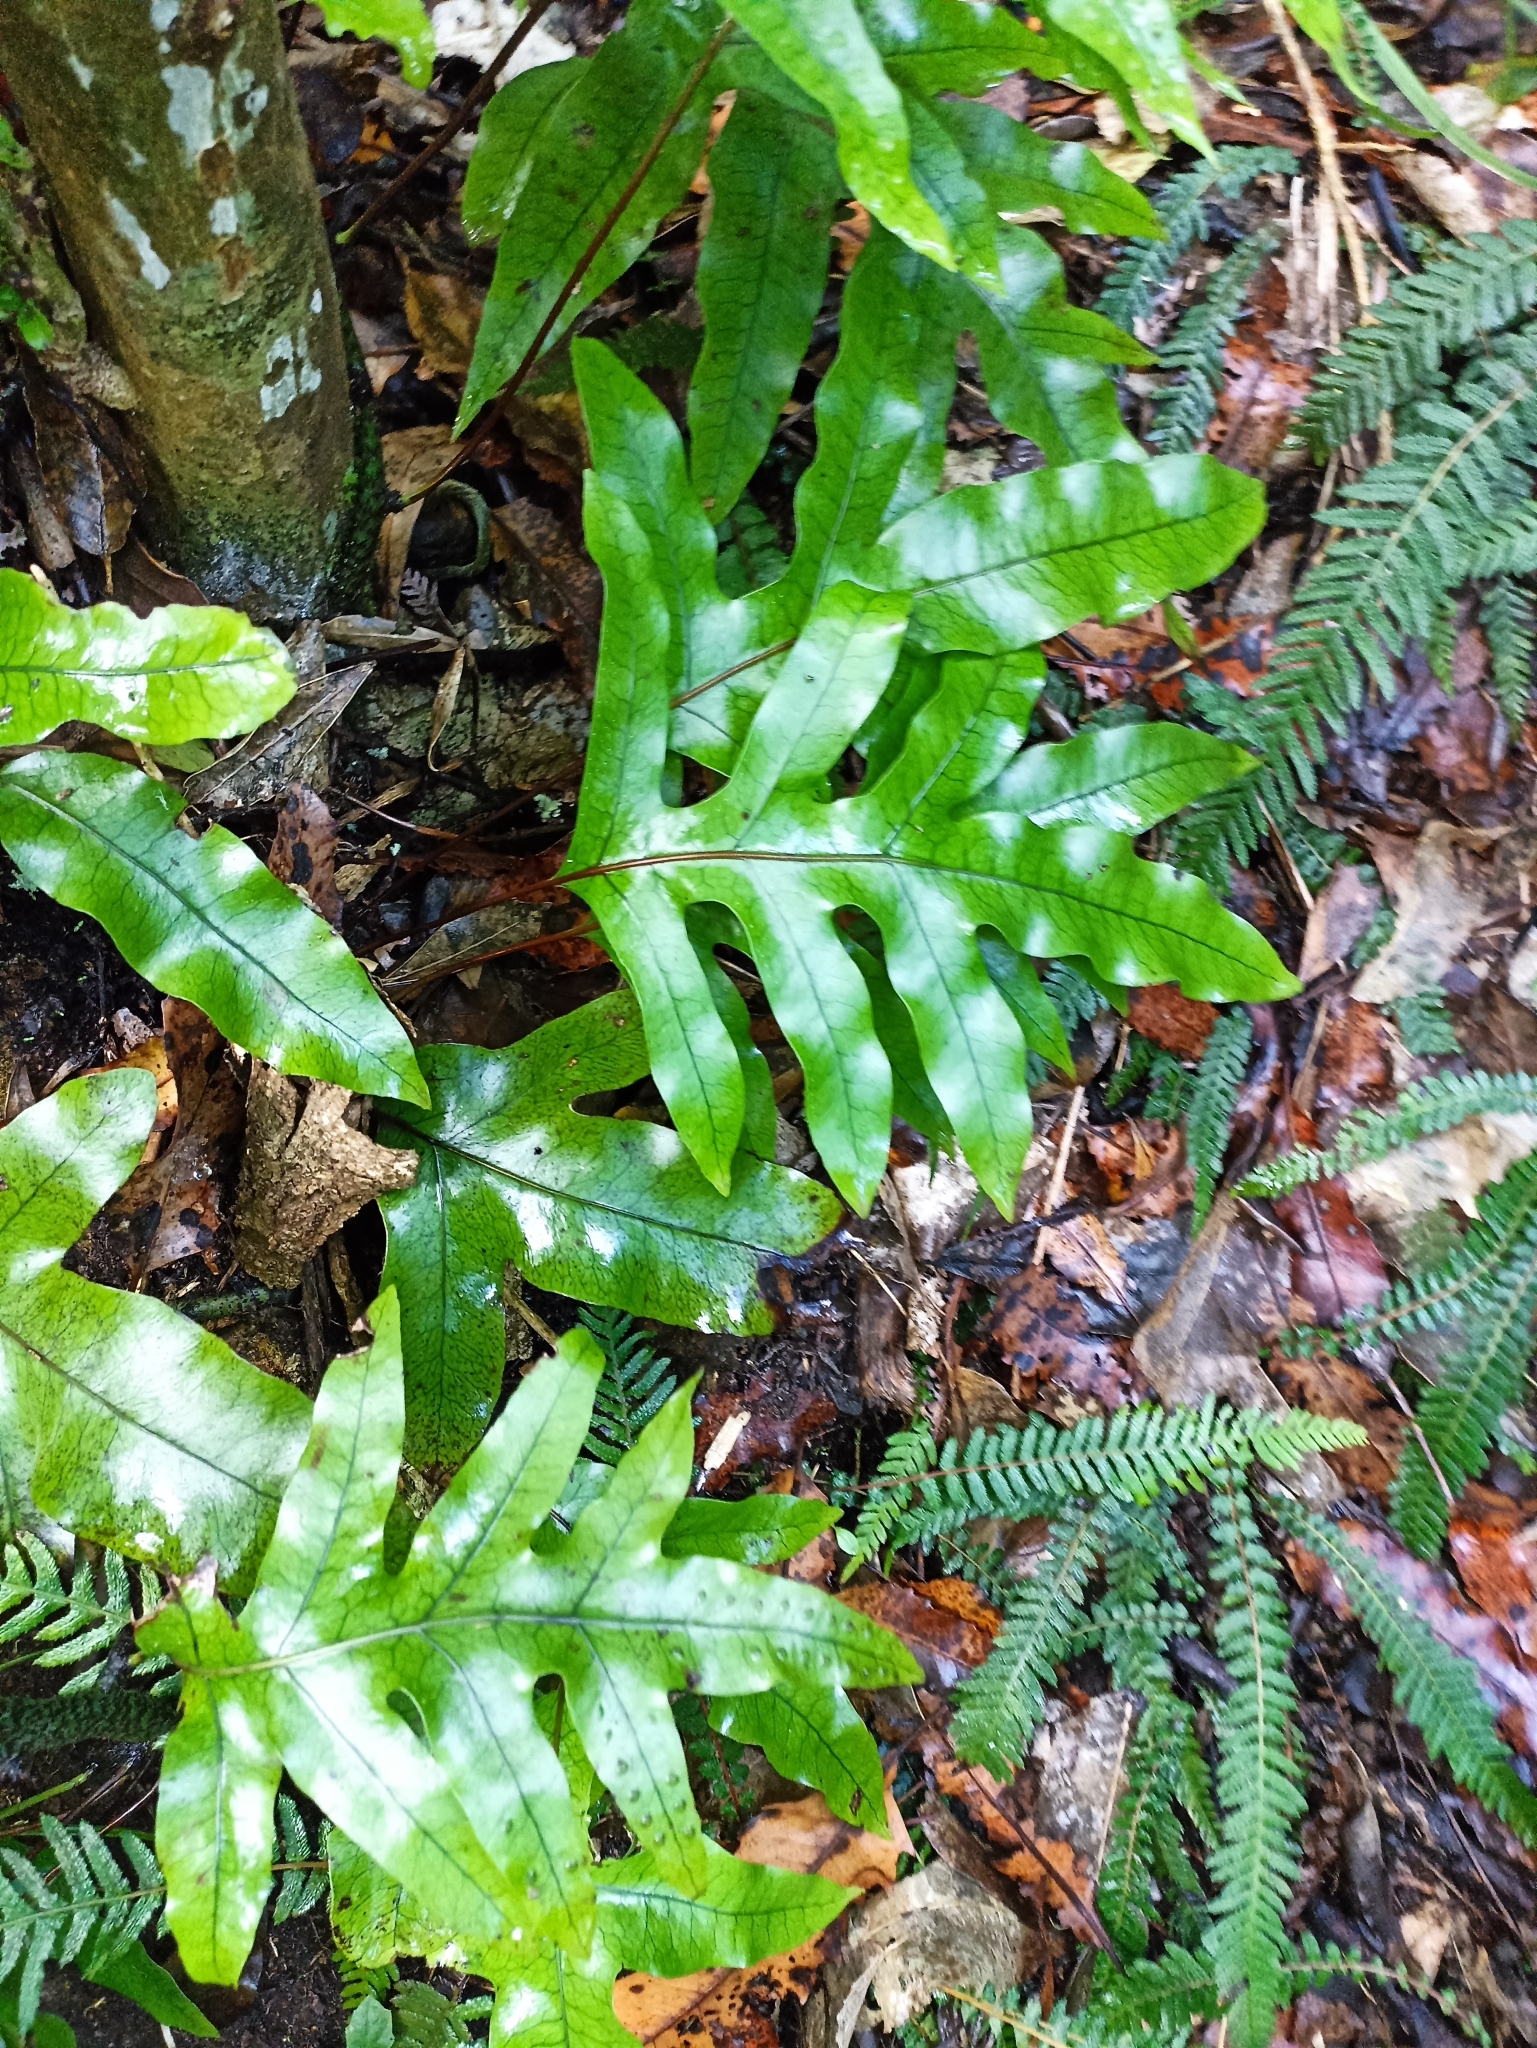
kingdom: Plantae
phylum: Tracheophyta
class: Polypodiopsida
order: Polypodiales
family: Polypodiaceae
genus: Lecanopteris
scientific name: Lecanopteris pustulata
